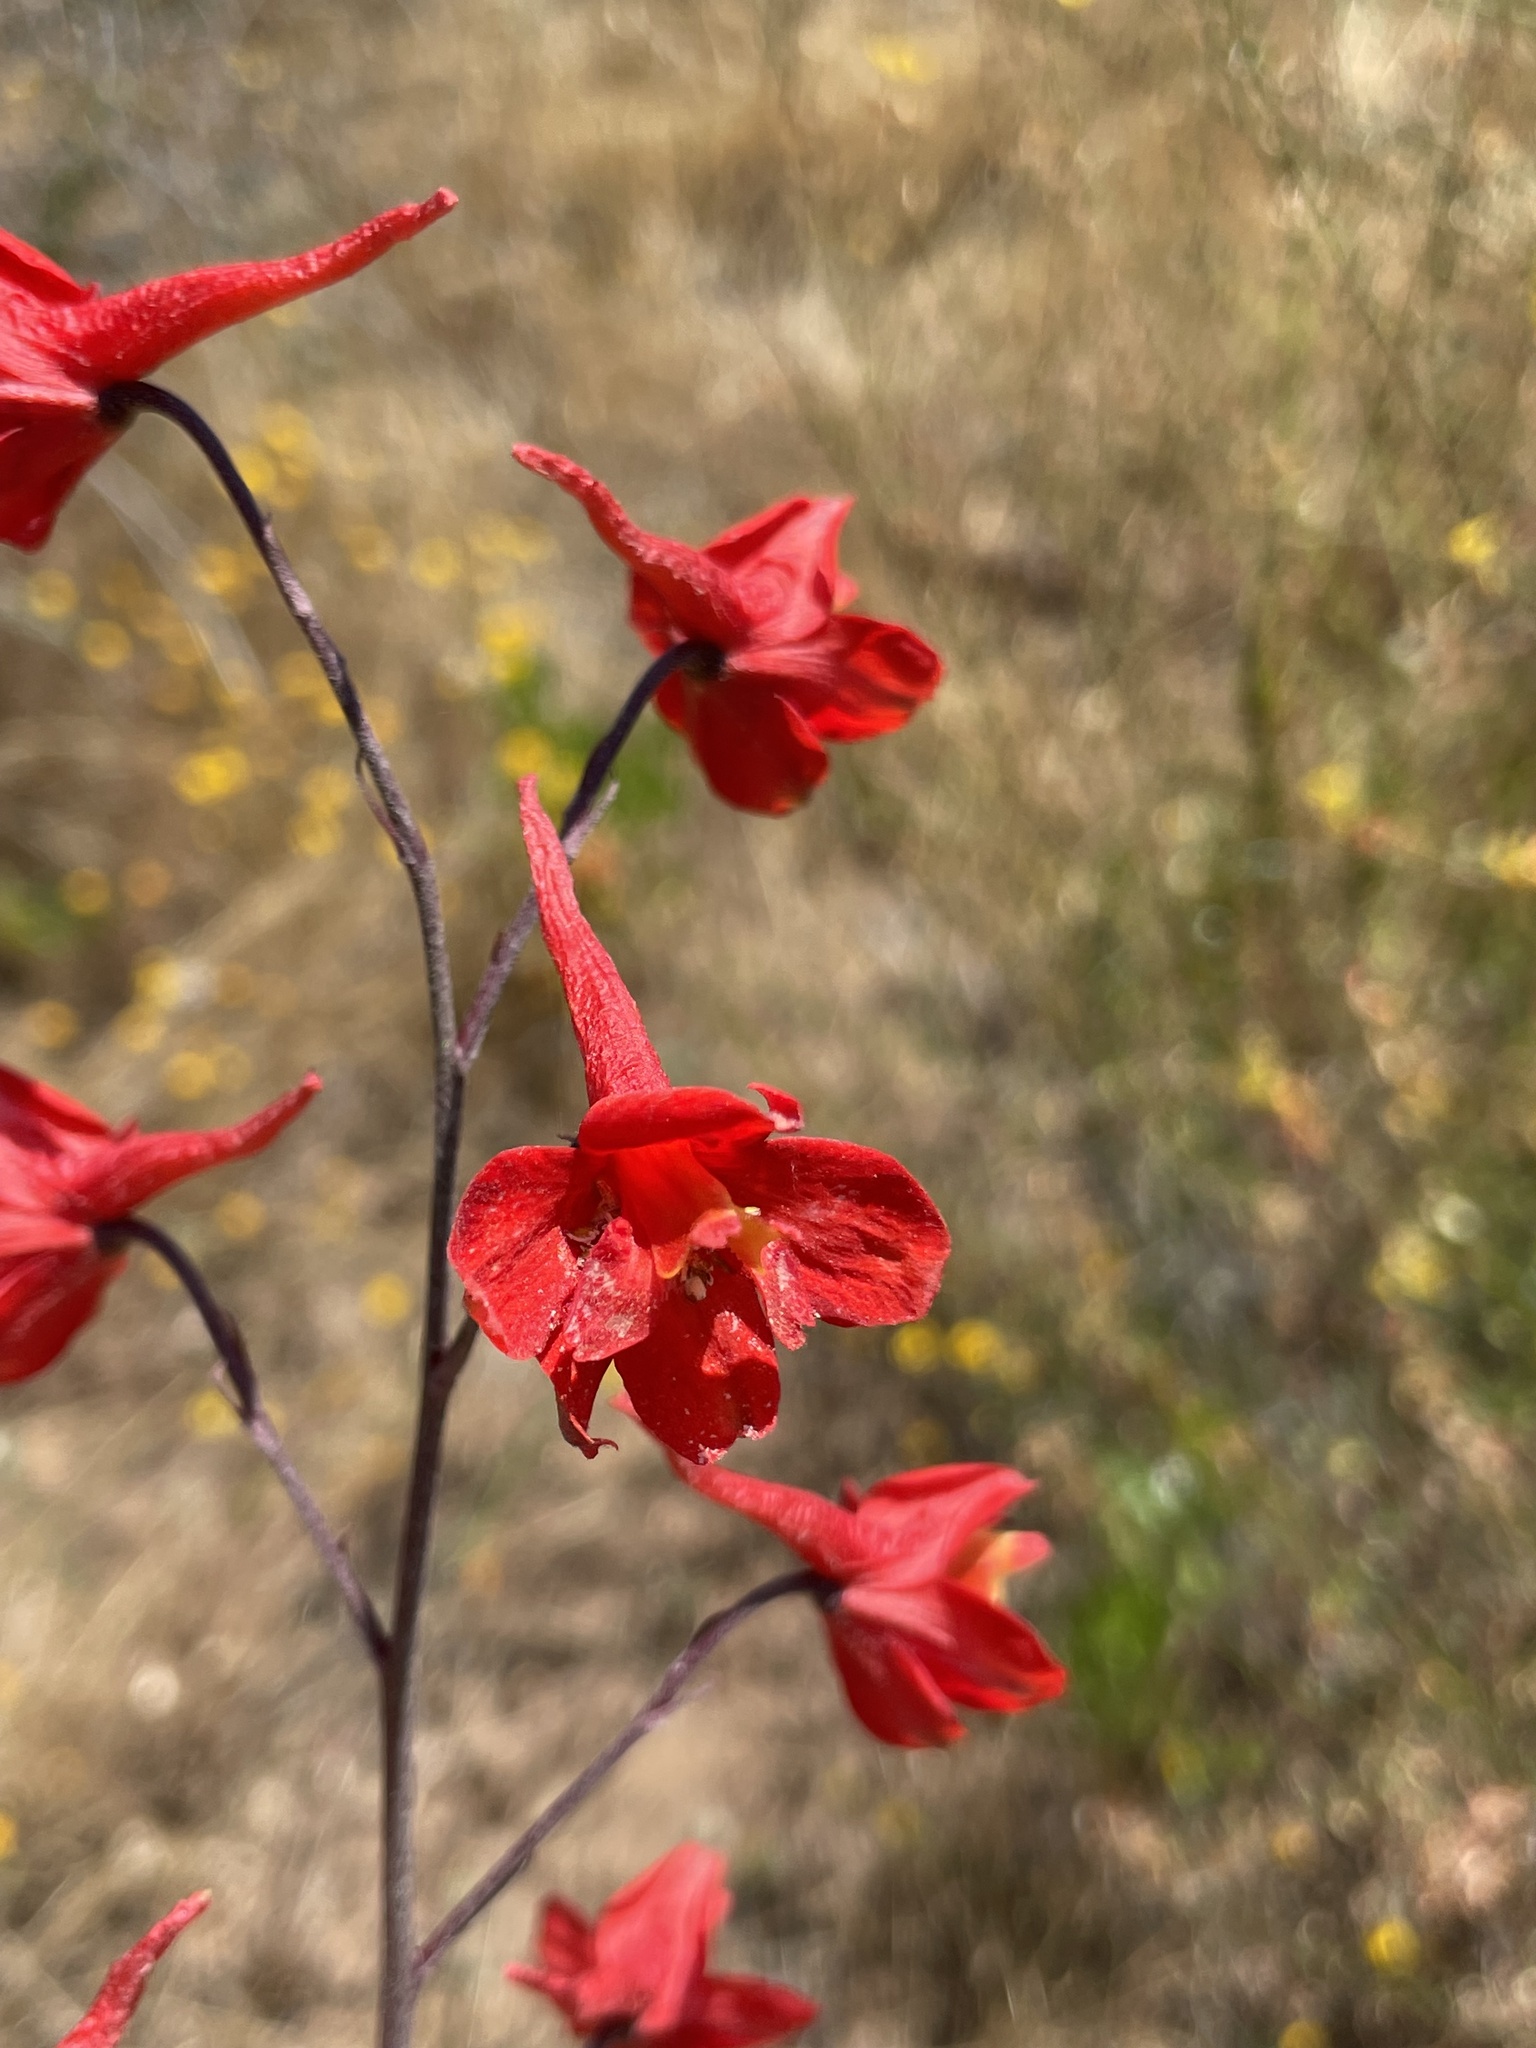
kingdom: Plantae
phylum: Tracheophyta
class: Magnoliopsida
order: Ranunculales
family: Ranunculaceae
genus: Delphinium
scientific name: Delphinium cardinale
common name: Scarlet larkspur
